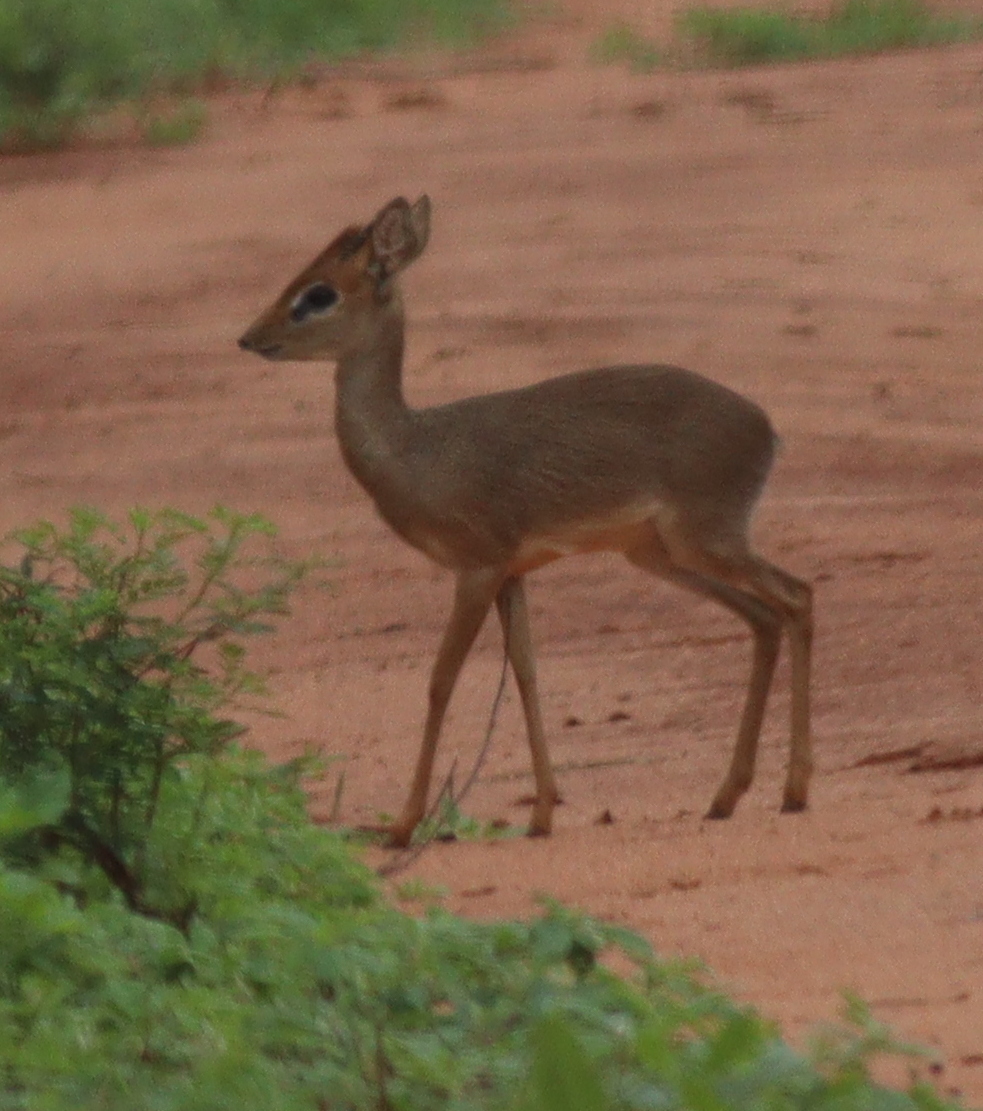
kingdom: Animalia
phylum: Chordata
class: Mammalia
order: Artiodactyla
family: Bovidae
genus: Madoqua
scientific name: Madoqua kirkii
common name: Kirk's dik-dik
